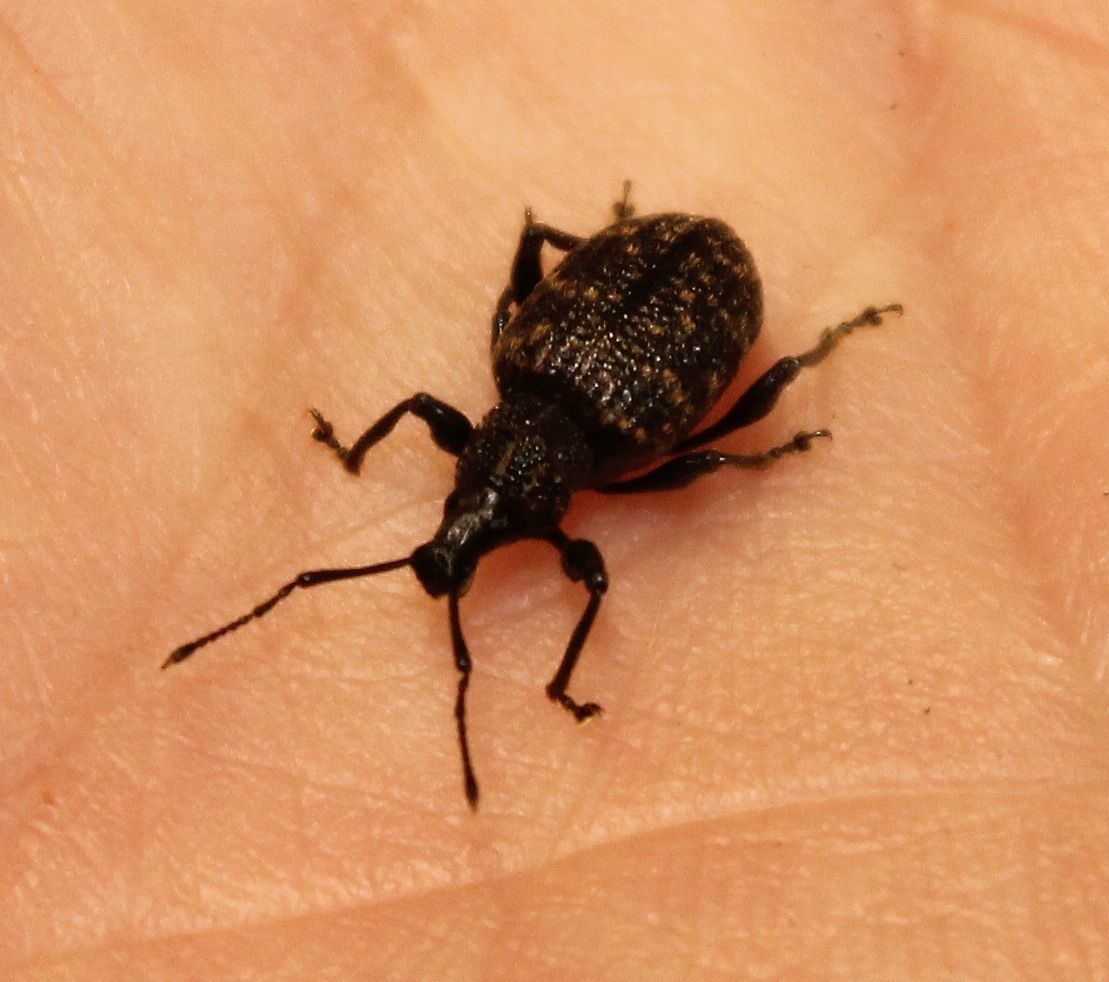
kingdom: Animalia
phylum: Arthropoda
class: Insecta
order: Coleoptera
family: Curculionidae
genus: Otiorhynchus
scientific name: Otiorhynchus sulcatus
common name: Black vine weevil
